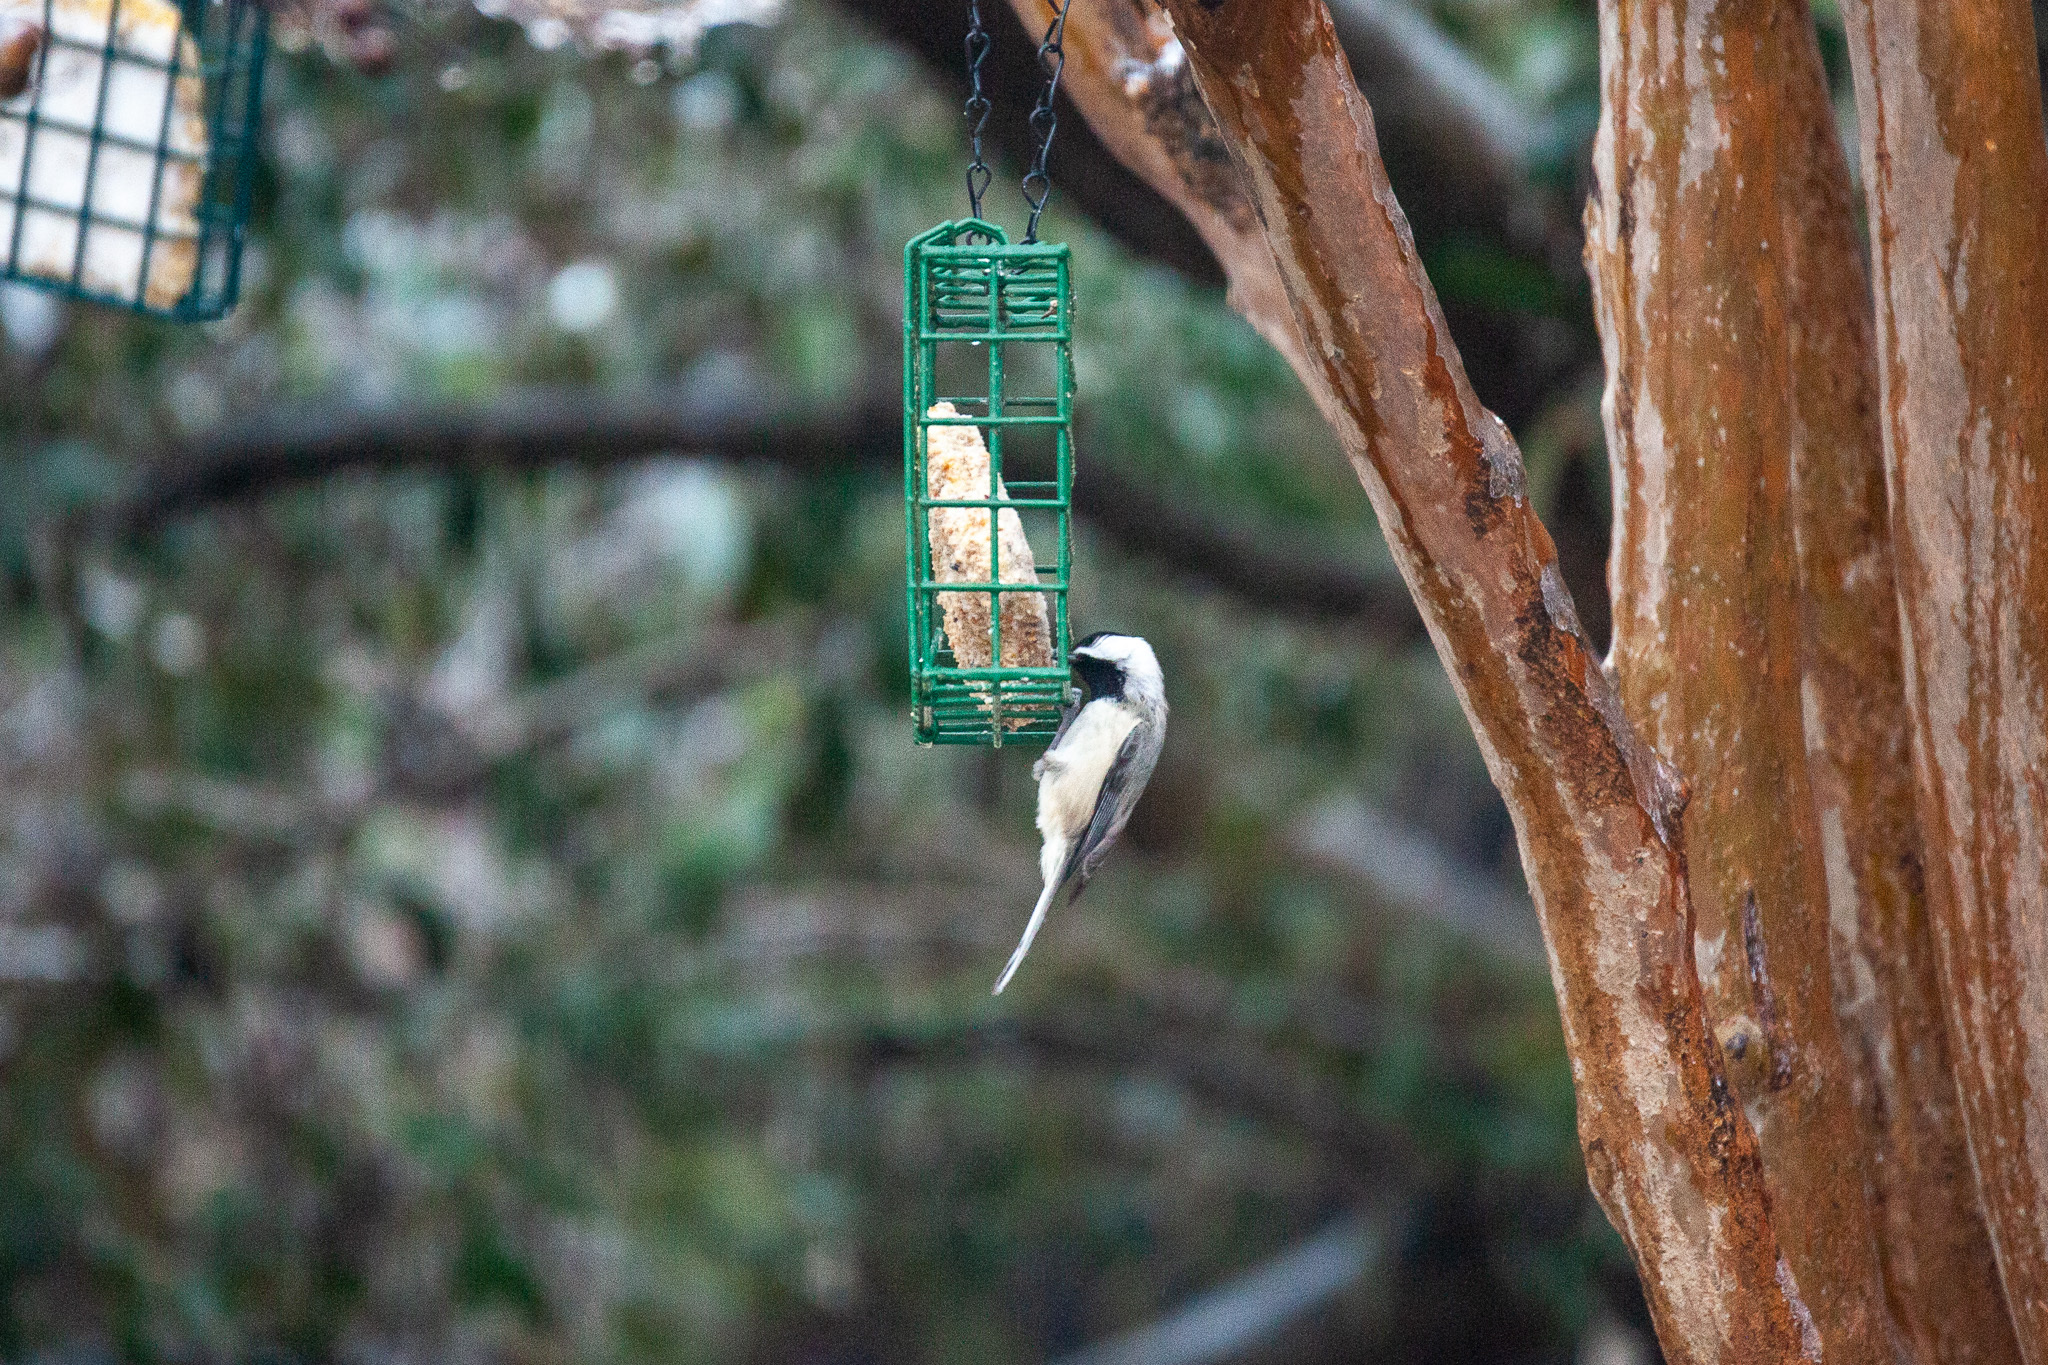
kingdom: Animalia
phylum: Chordata
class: Aves
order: Passeriformes
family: Paridae
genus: Poecile
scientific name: Poecile carolinensis
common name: Carolina chickadee
